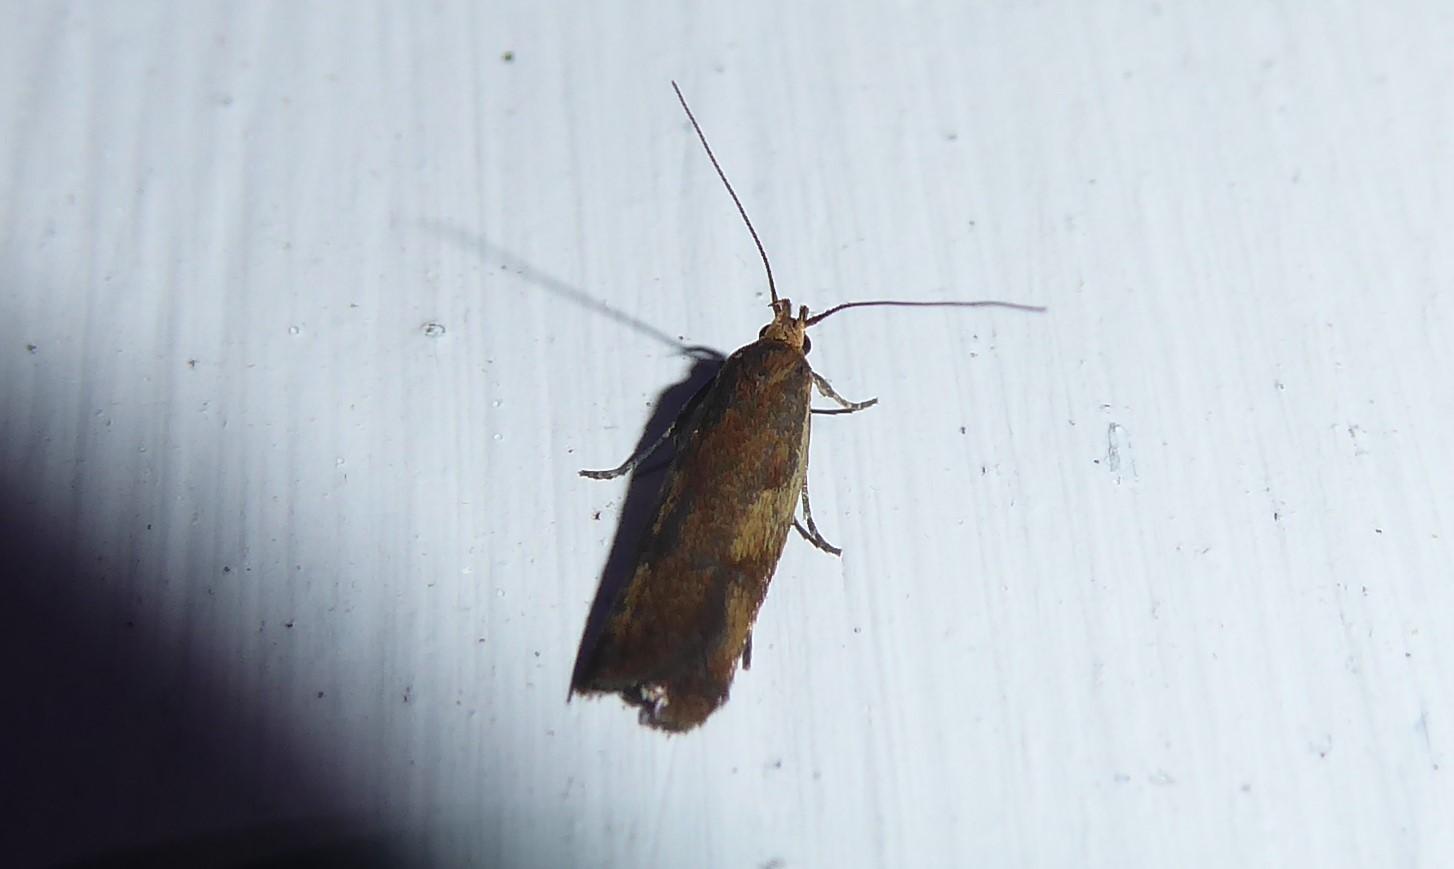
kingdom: Animalia
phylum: Arthropoda
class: Insecta
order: Lepidoptera
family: Oecophoridae
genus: Gymnobathra
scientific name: Gymnobathra parca
